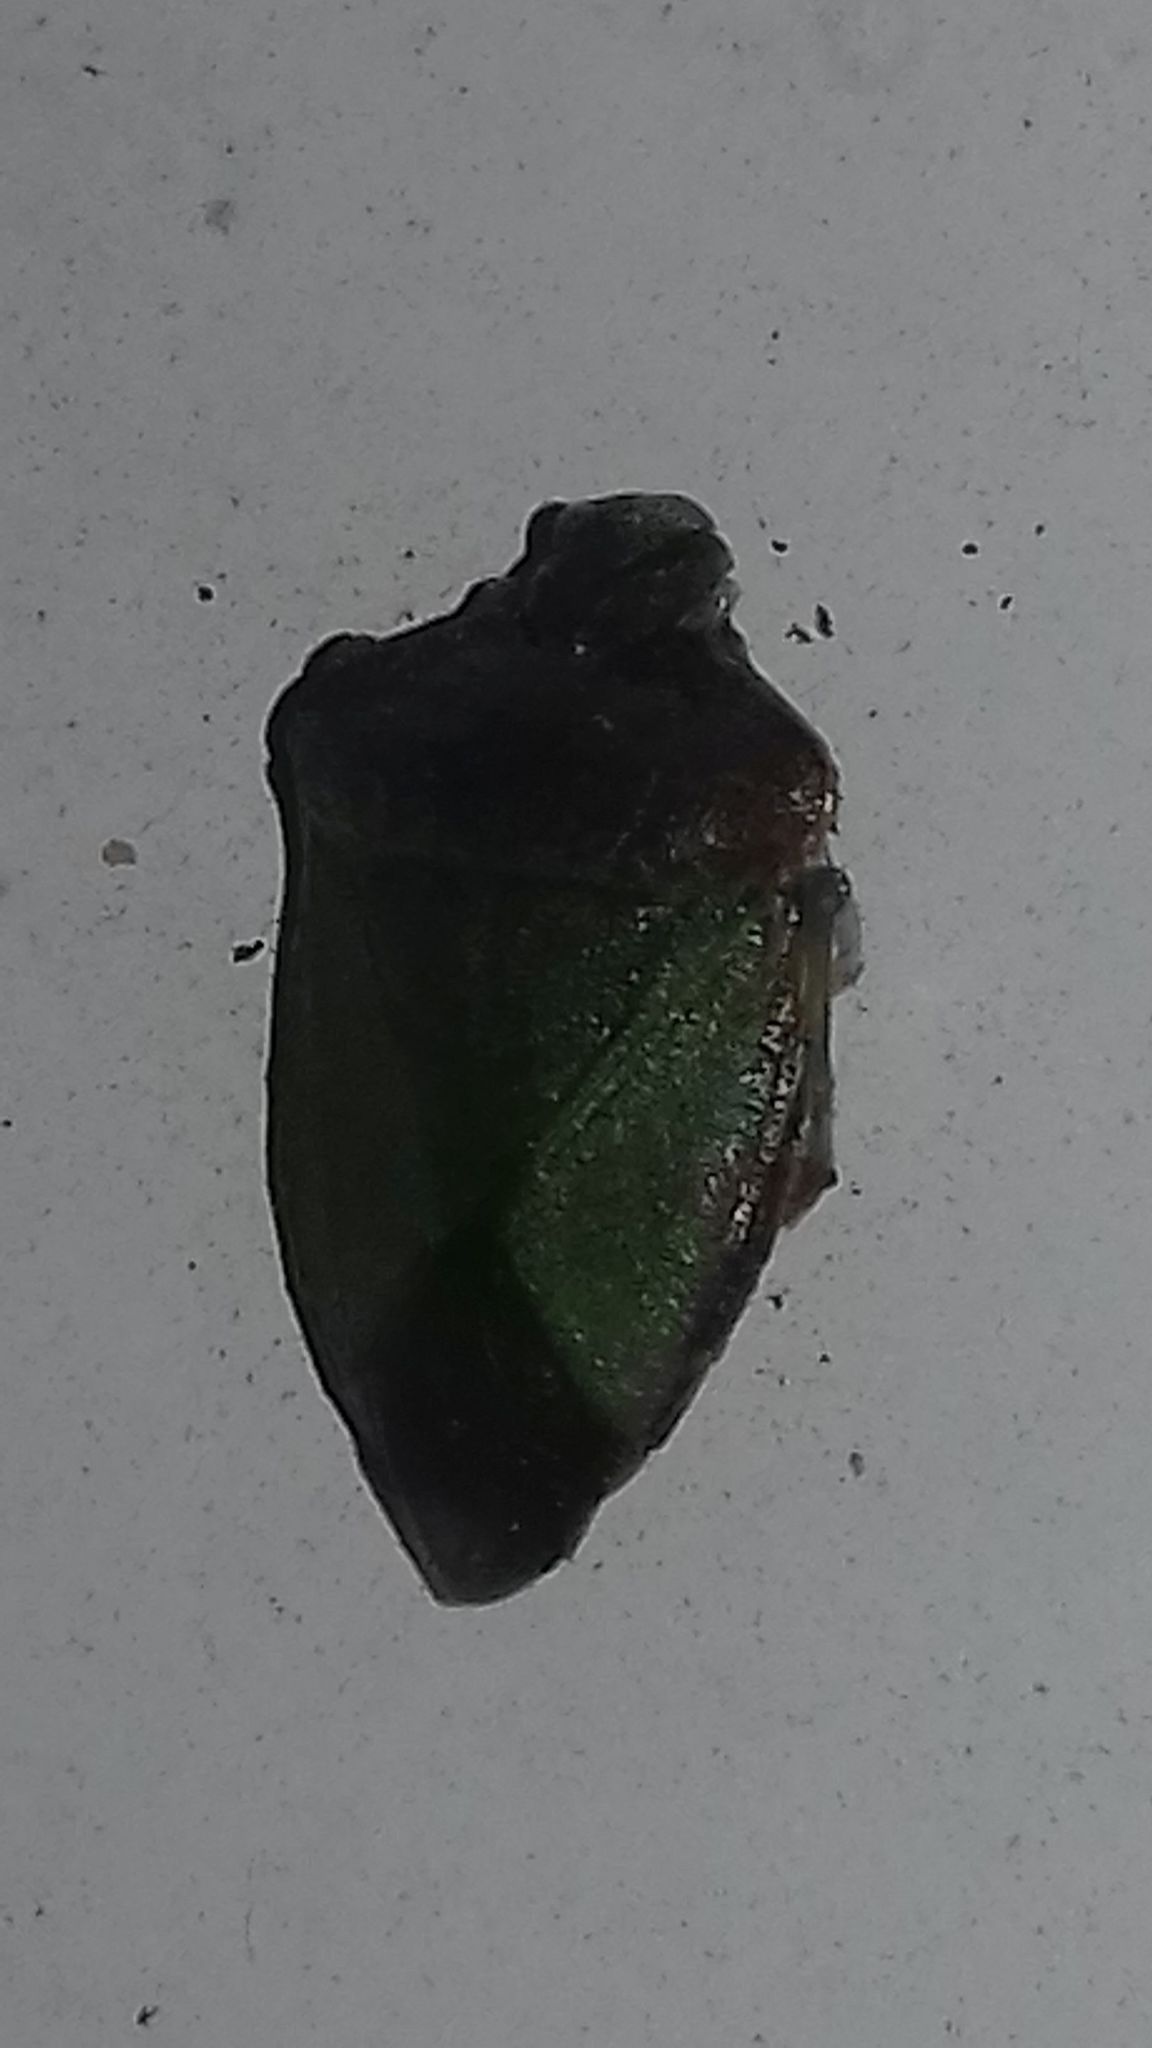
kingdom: Animalia
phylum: Arthropoda
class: Insecta
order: Hemiptera
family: Pentatomidae
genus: Palomena
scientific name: Palomena prasina
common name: Green shieldbug
